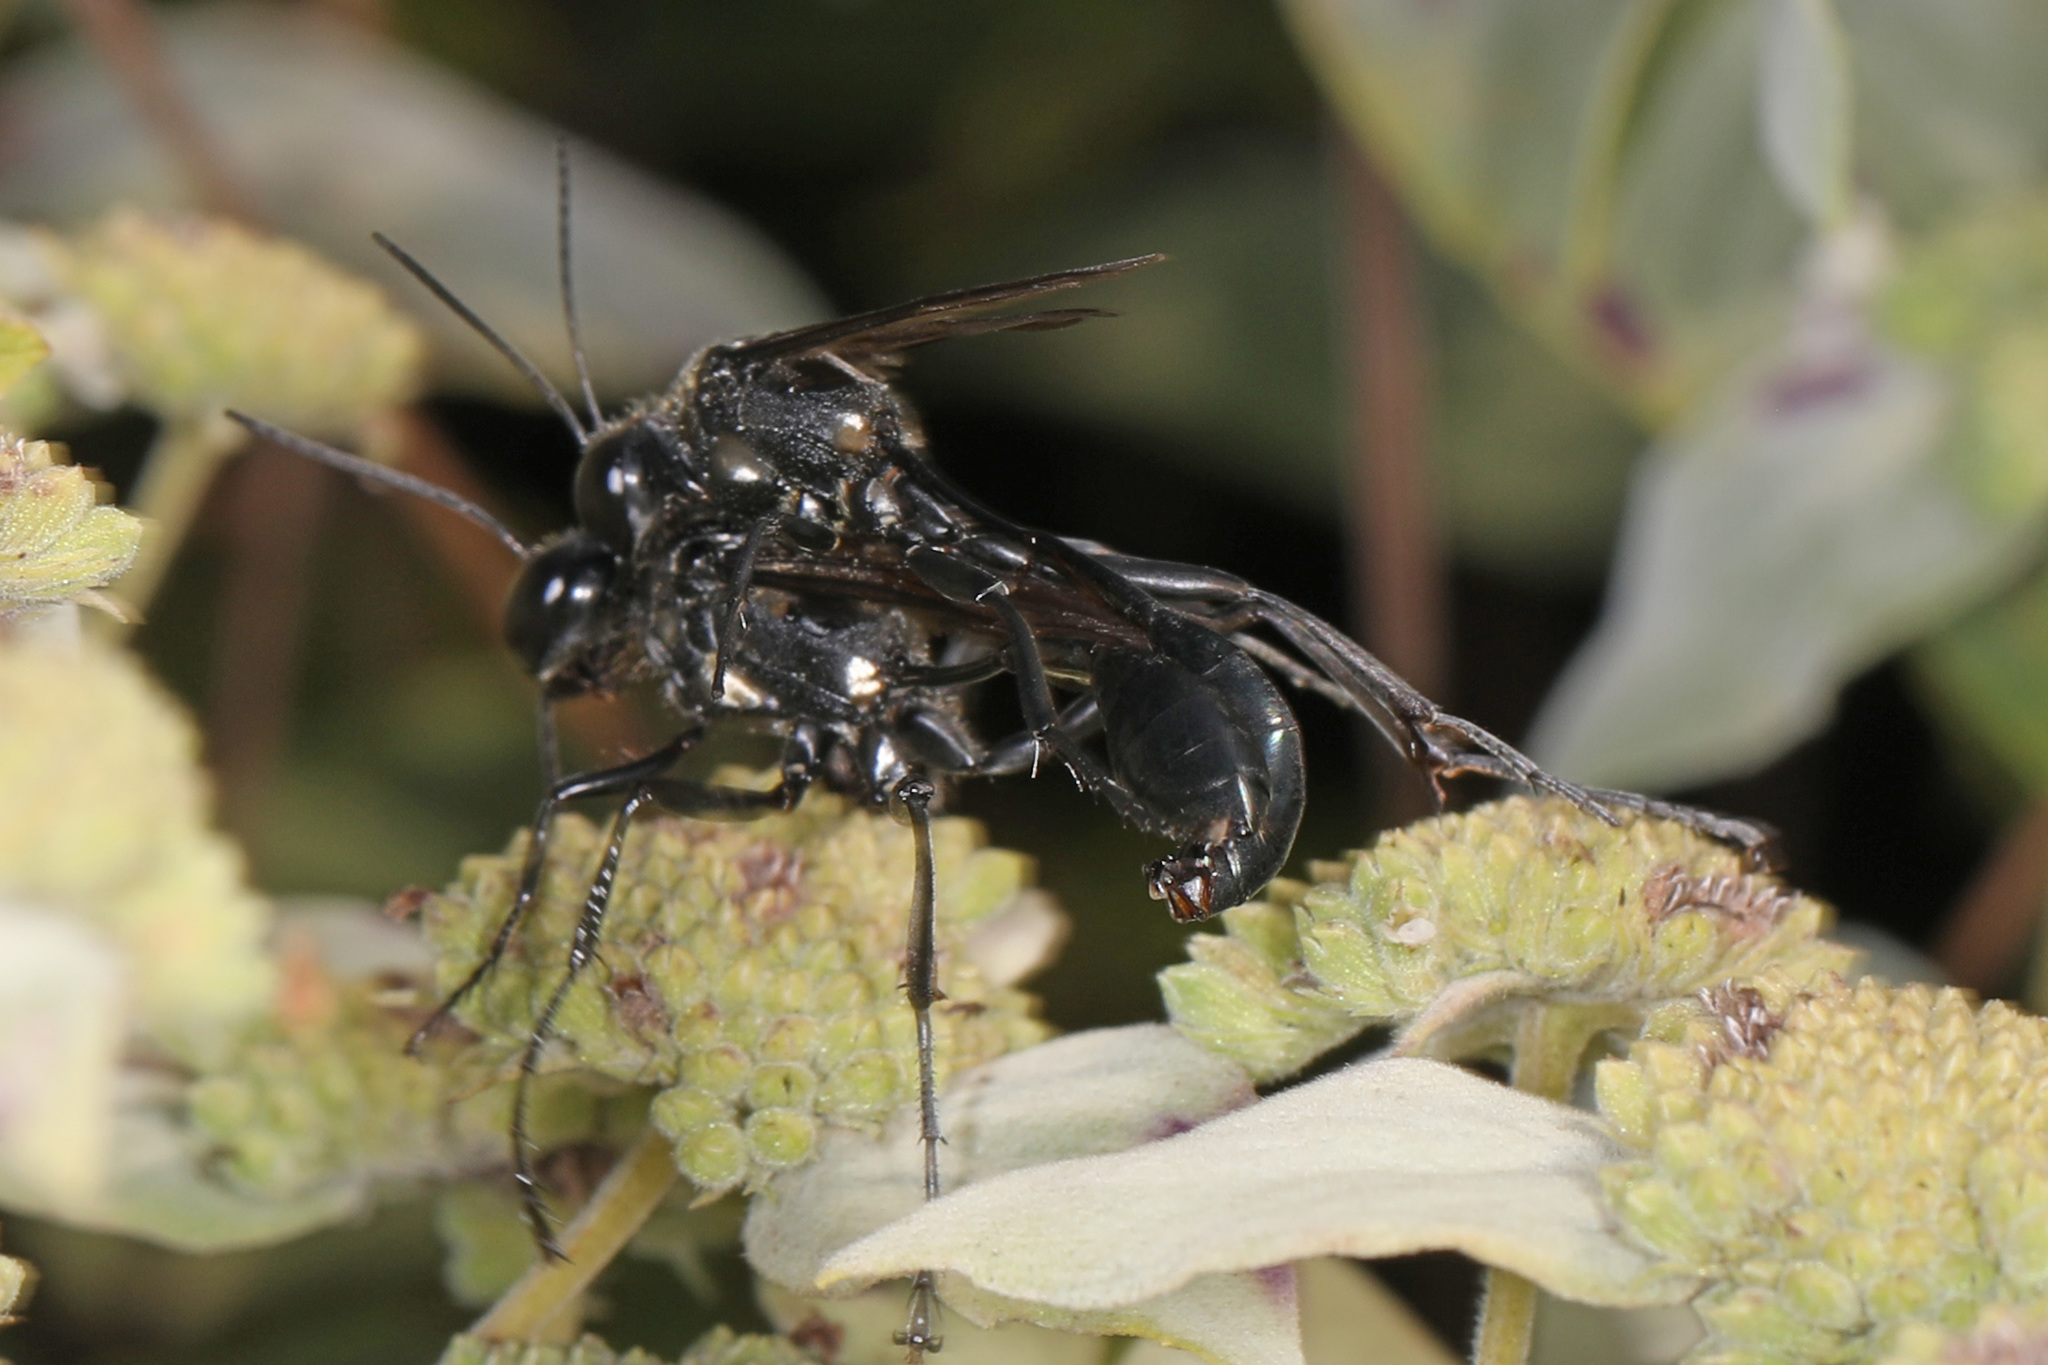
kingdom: Animalia
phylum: Arthropoda
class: Insecta
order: Hymenoptera
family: Sphecidae
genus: Eremnophila
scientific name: Eremnophila aureonotata
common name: Gold-marked thread-waisted wasp
